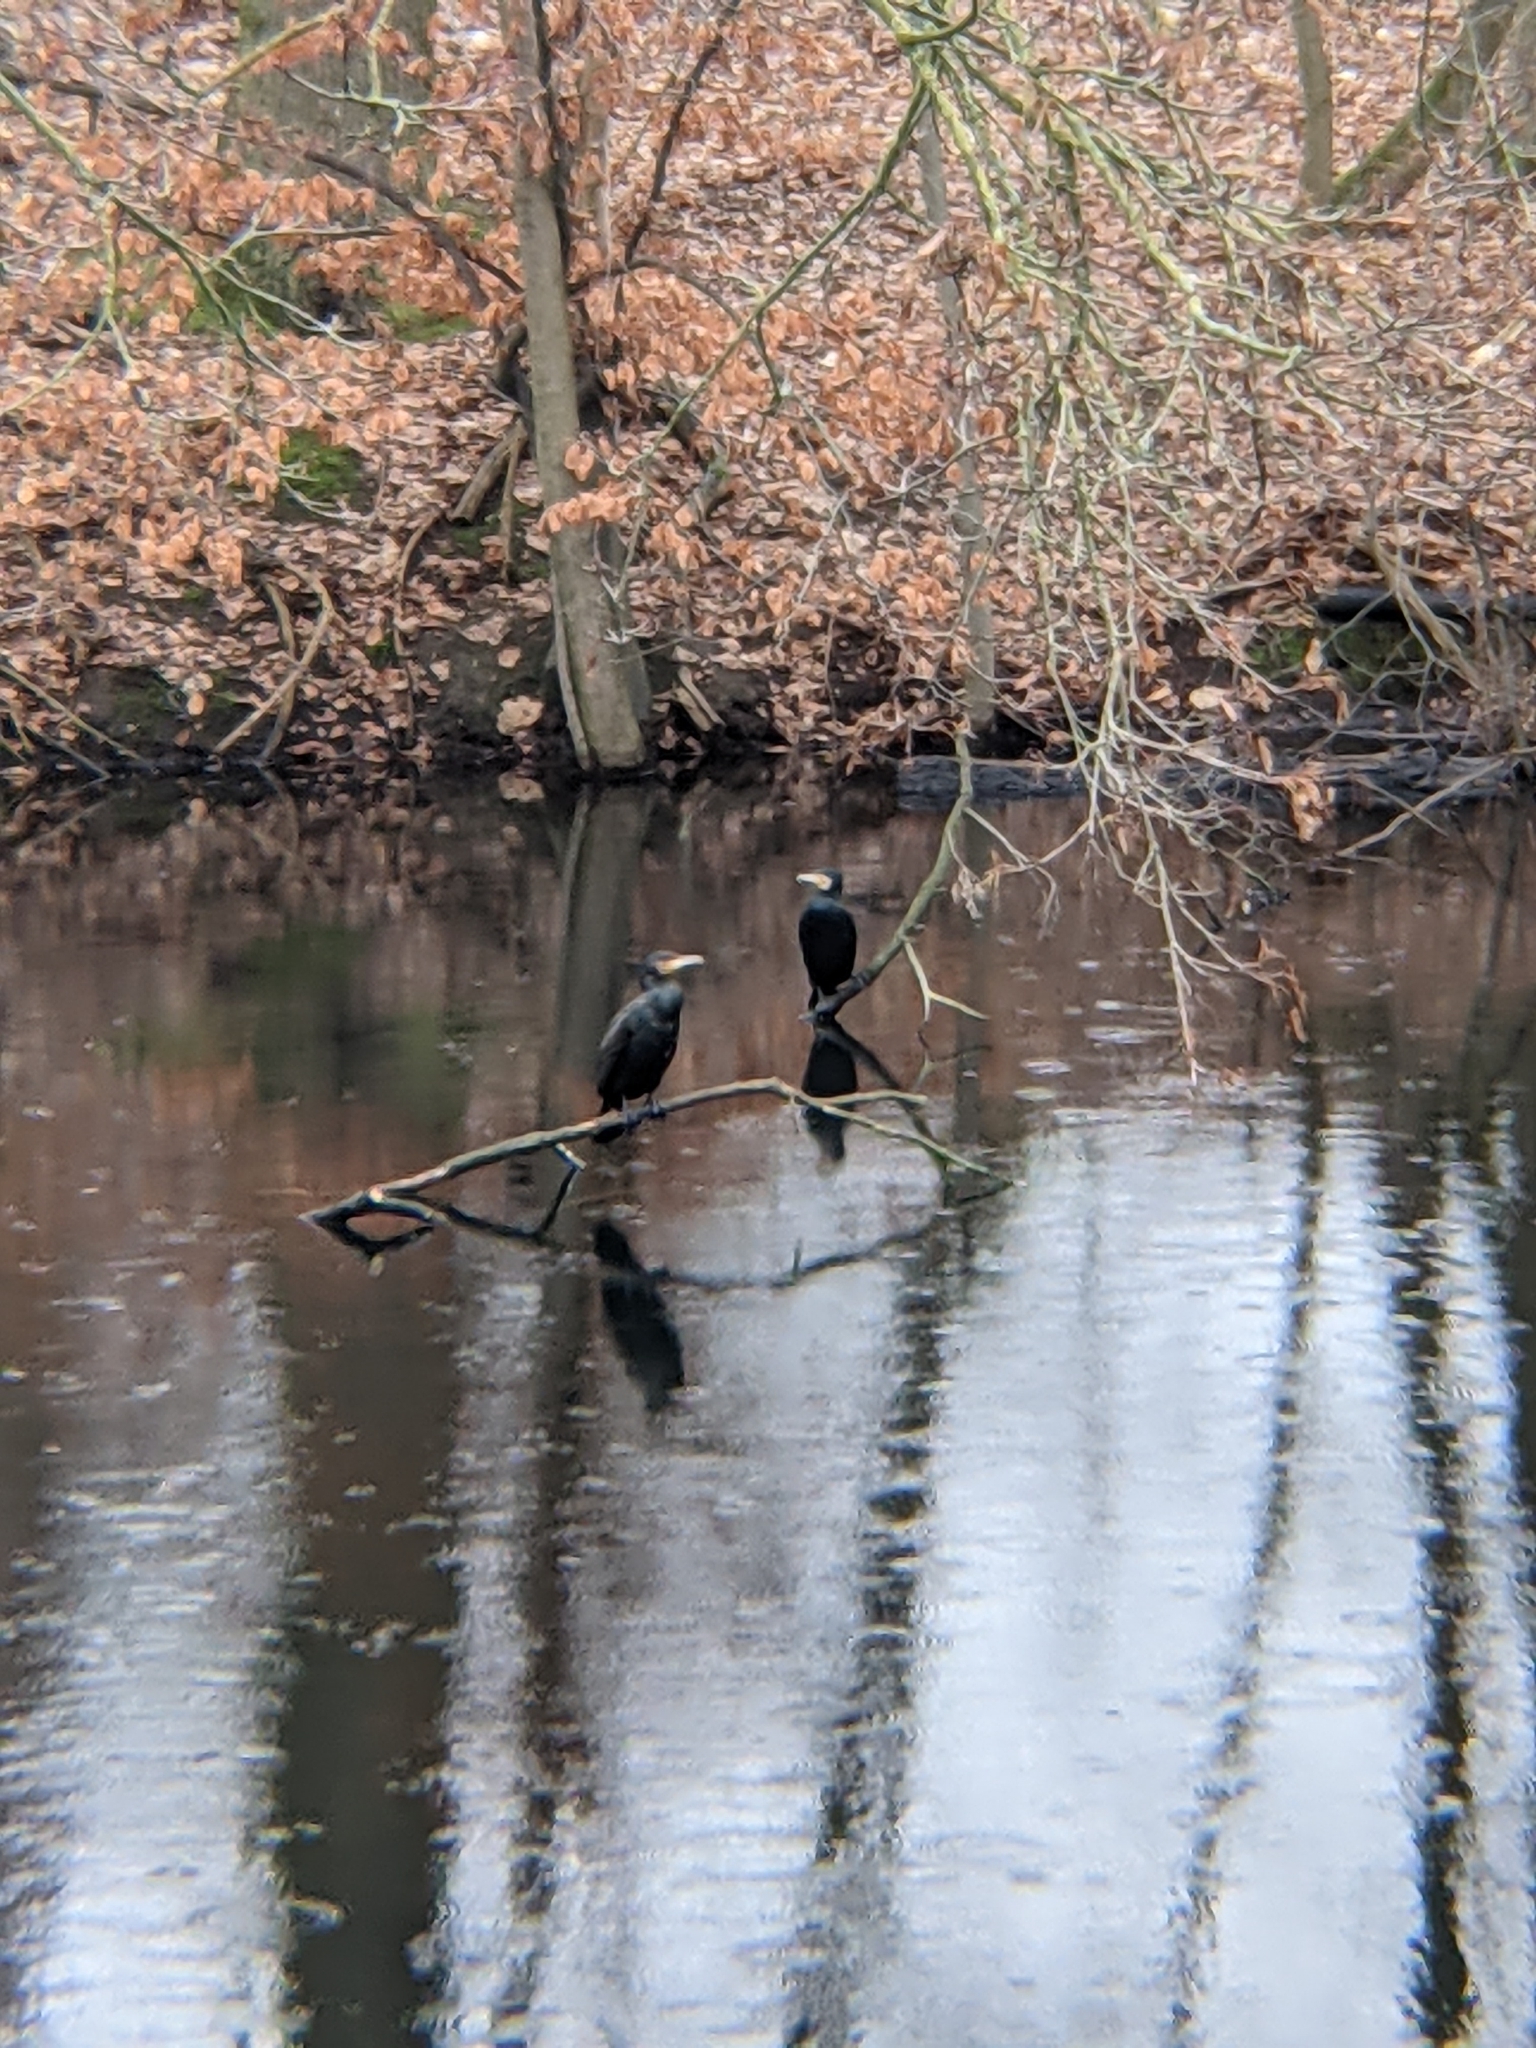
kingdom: Animalia
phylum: Chordata
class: Aves
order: Suliformes
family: Phalacrocoracidae
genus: Phalacrocorax
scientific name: Phalacrocorax carbo
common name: Great cormorant
